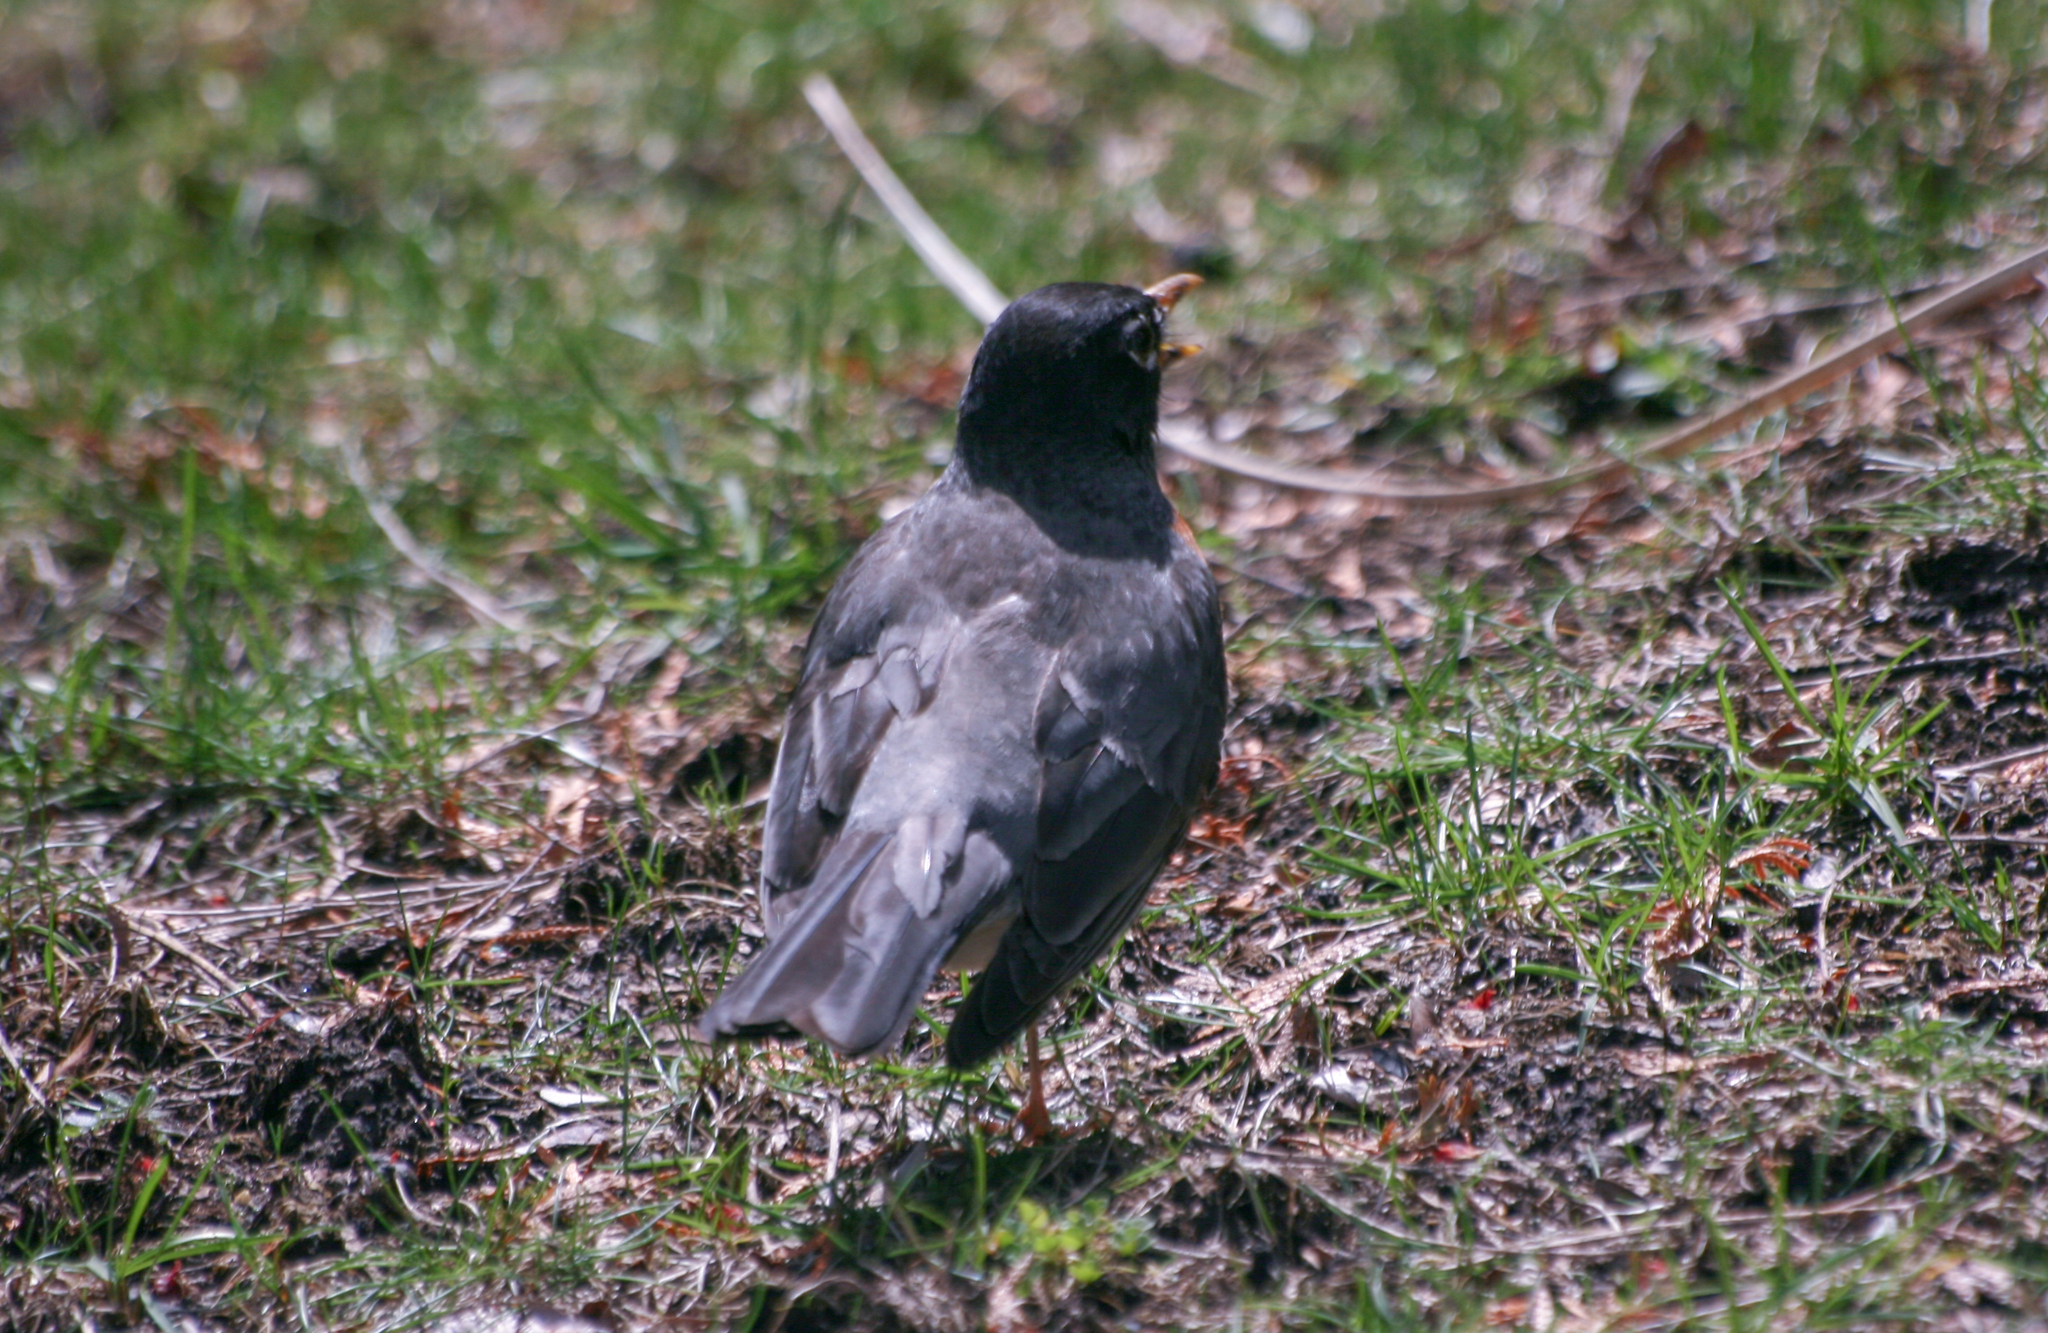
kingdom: Animalia
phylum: Chordata
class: Aves
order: Passeriformes
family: Turdidae
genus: Turdus
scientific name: Turdus migratorius
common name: American robin
